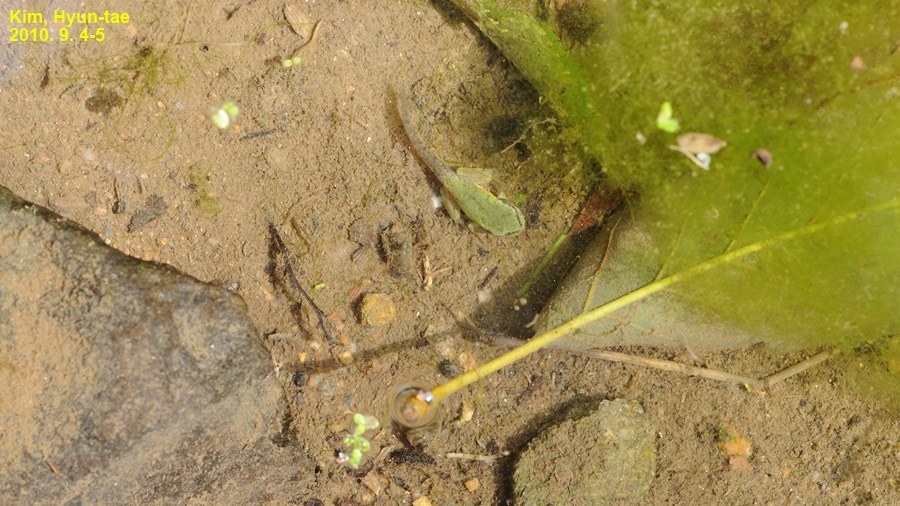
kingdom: Animalia
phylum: Chordata
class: Amphibia
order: Anura
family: Hylidae
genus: Dryophytes
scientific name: Dryophytes japonicus
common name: Japanese treefrog
